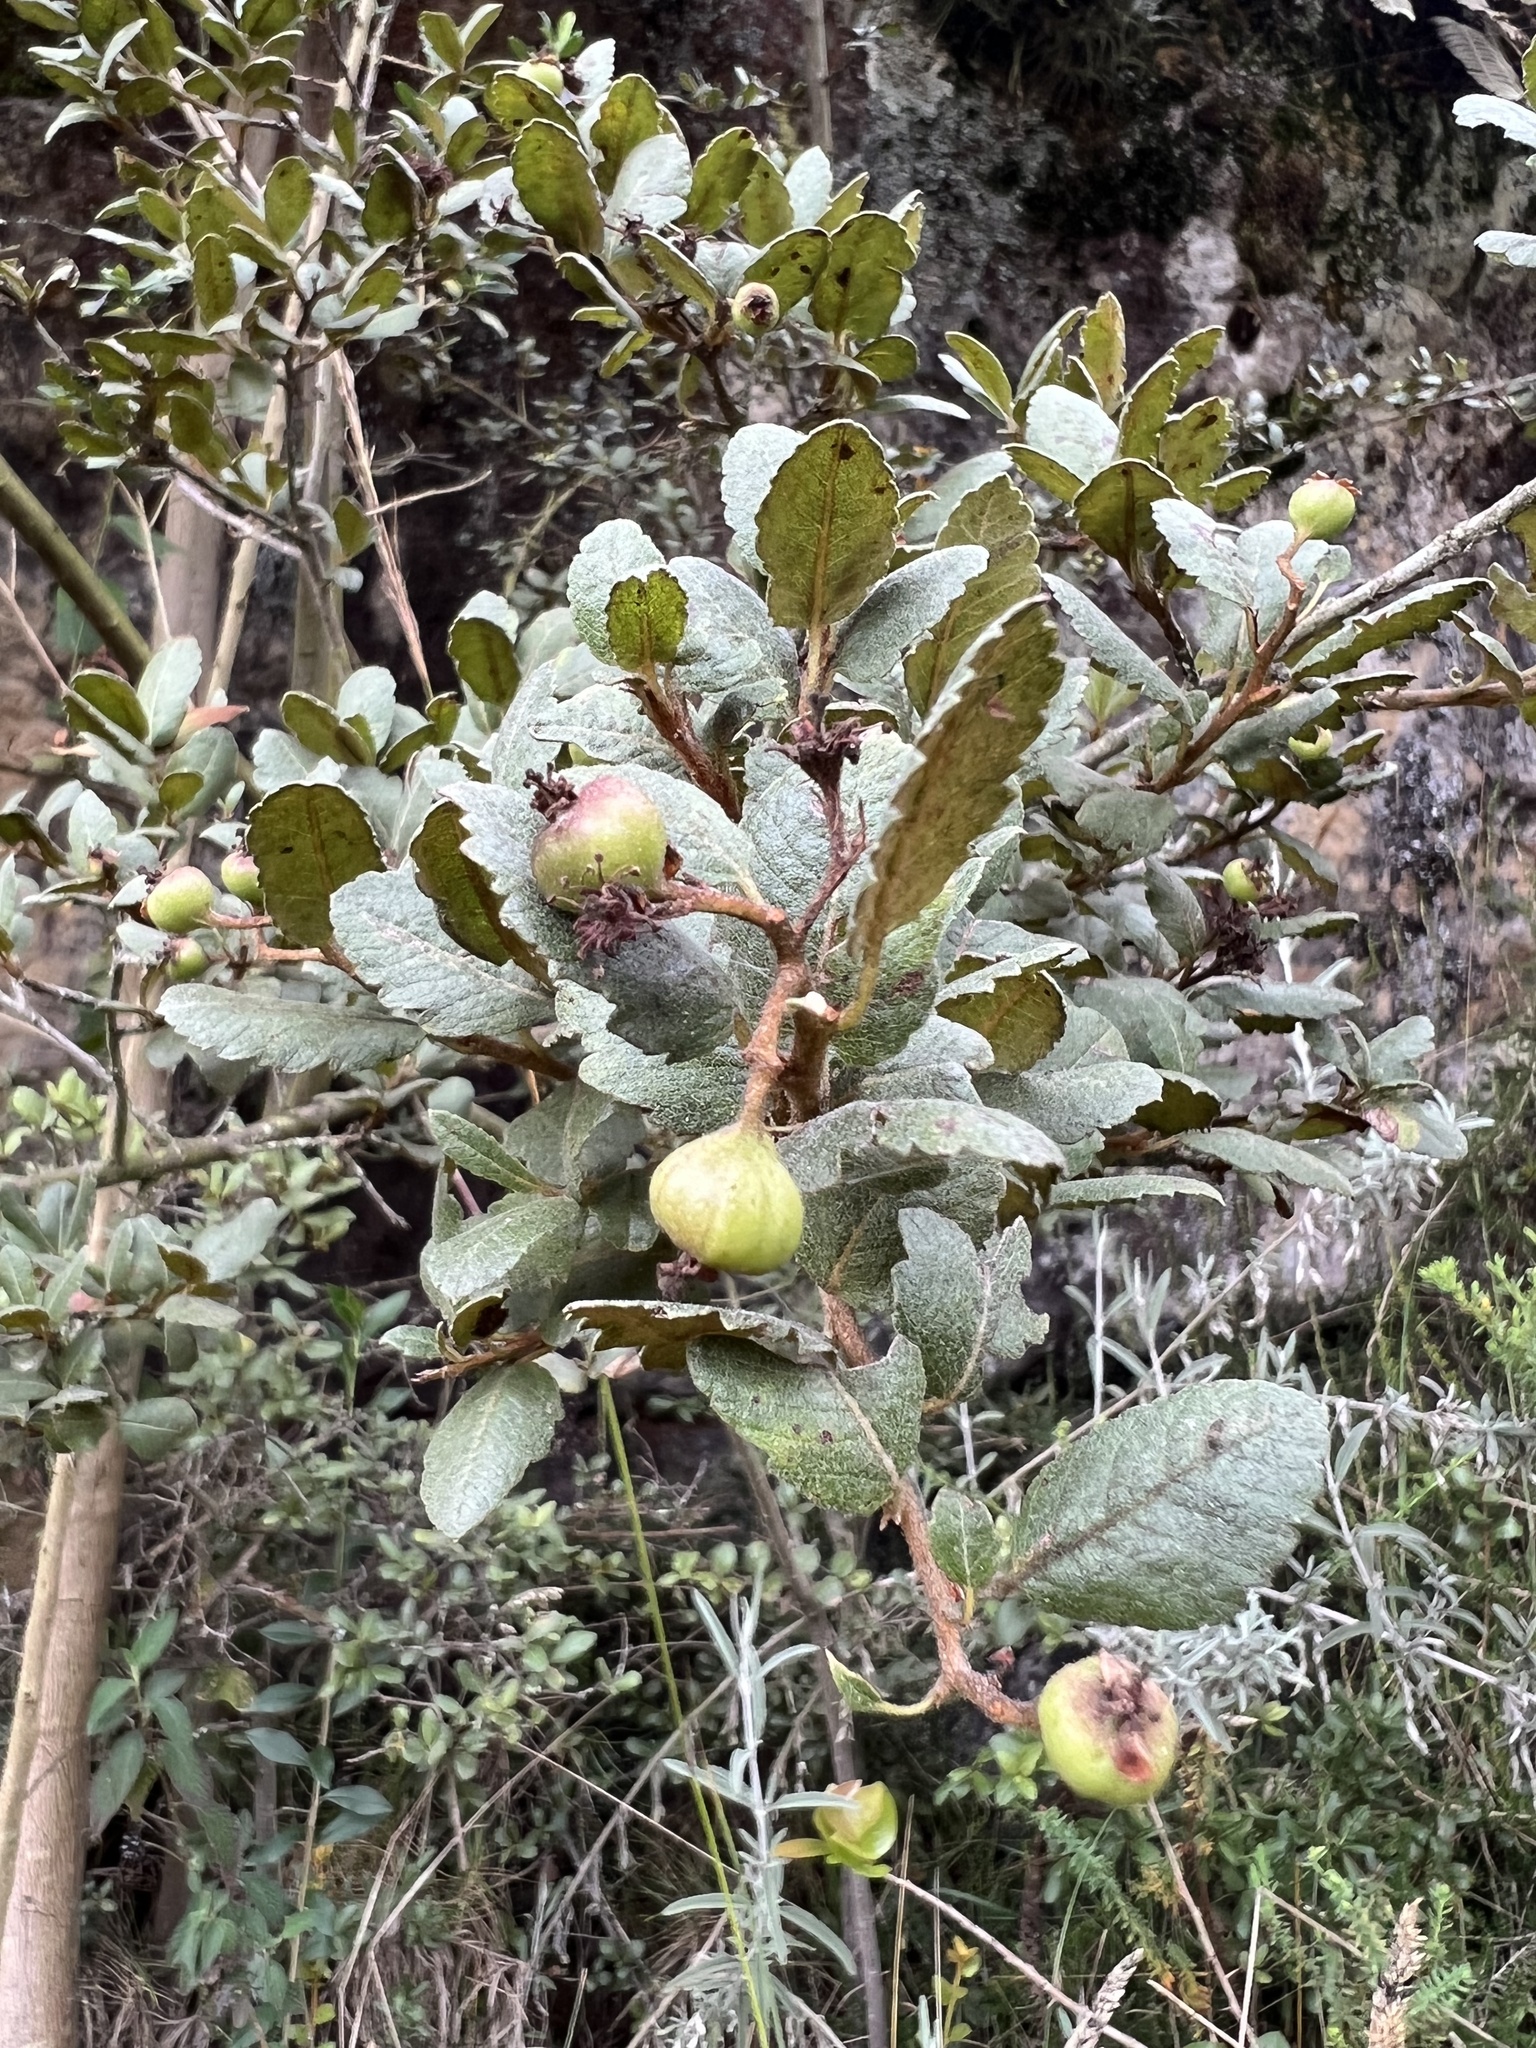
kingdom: Plantae
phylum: Tracheophyta
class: Magnoliopsida
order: Rosales
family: Rosaceae
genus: Hesperomeles
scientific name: Hesperomeles goudotiana
